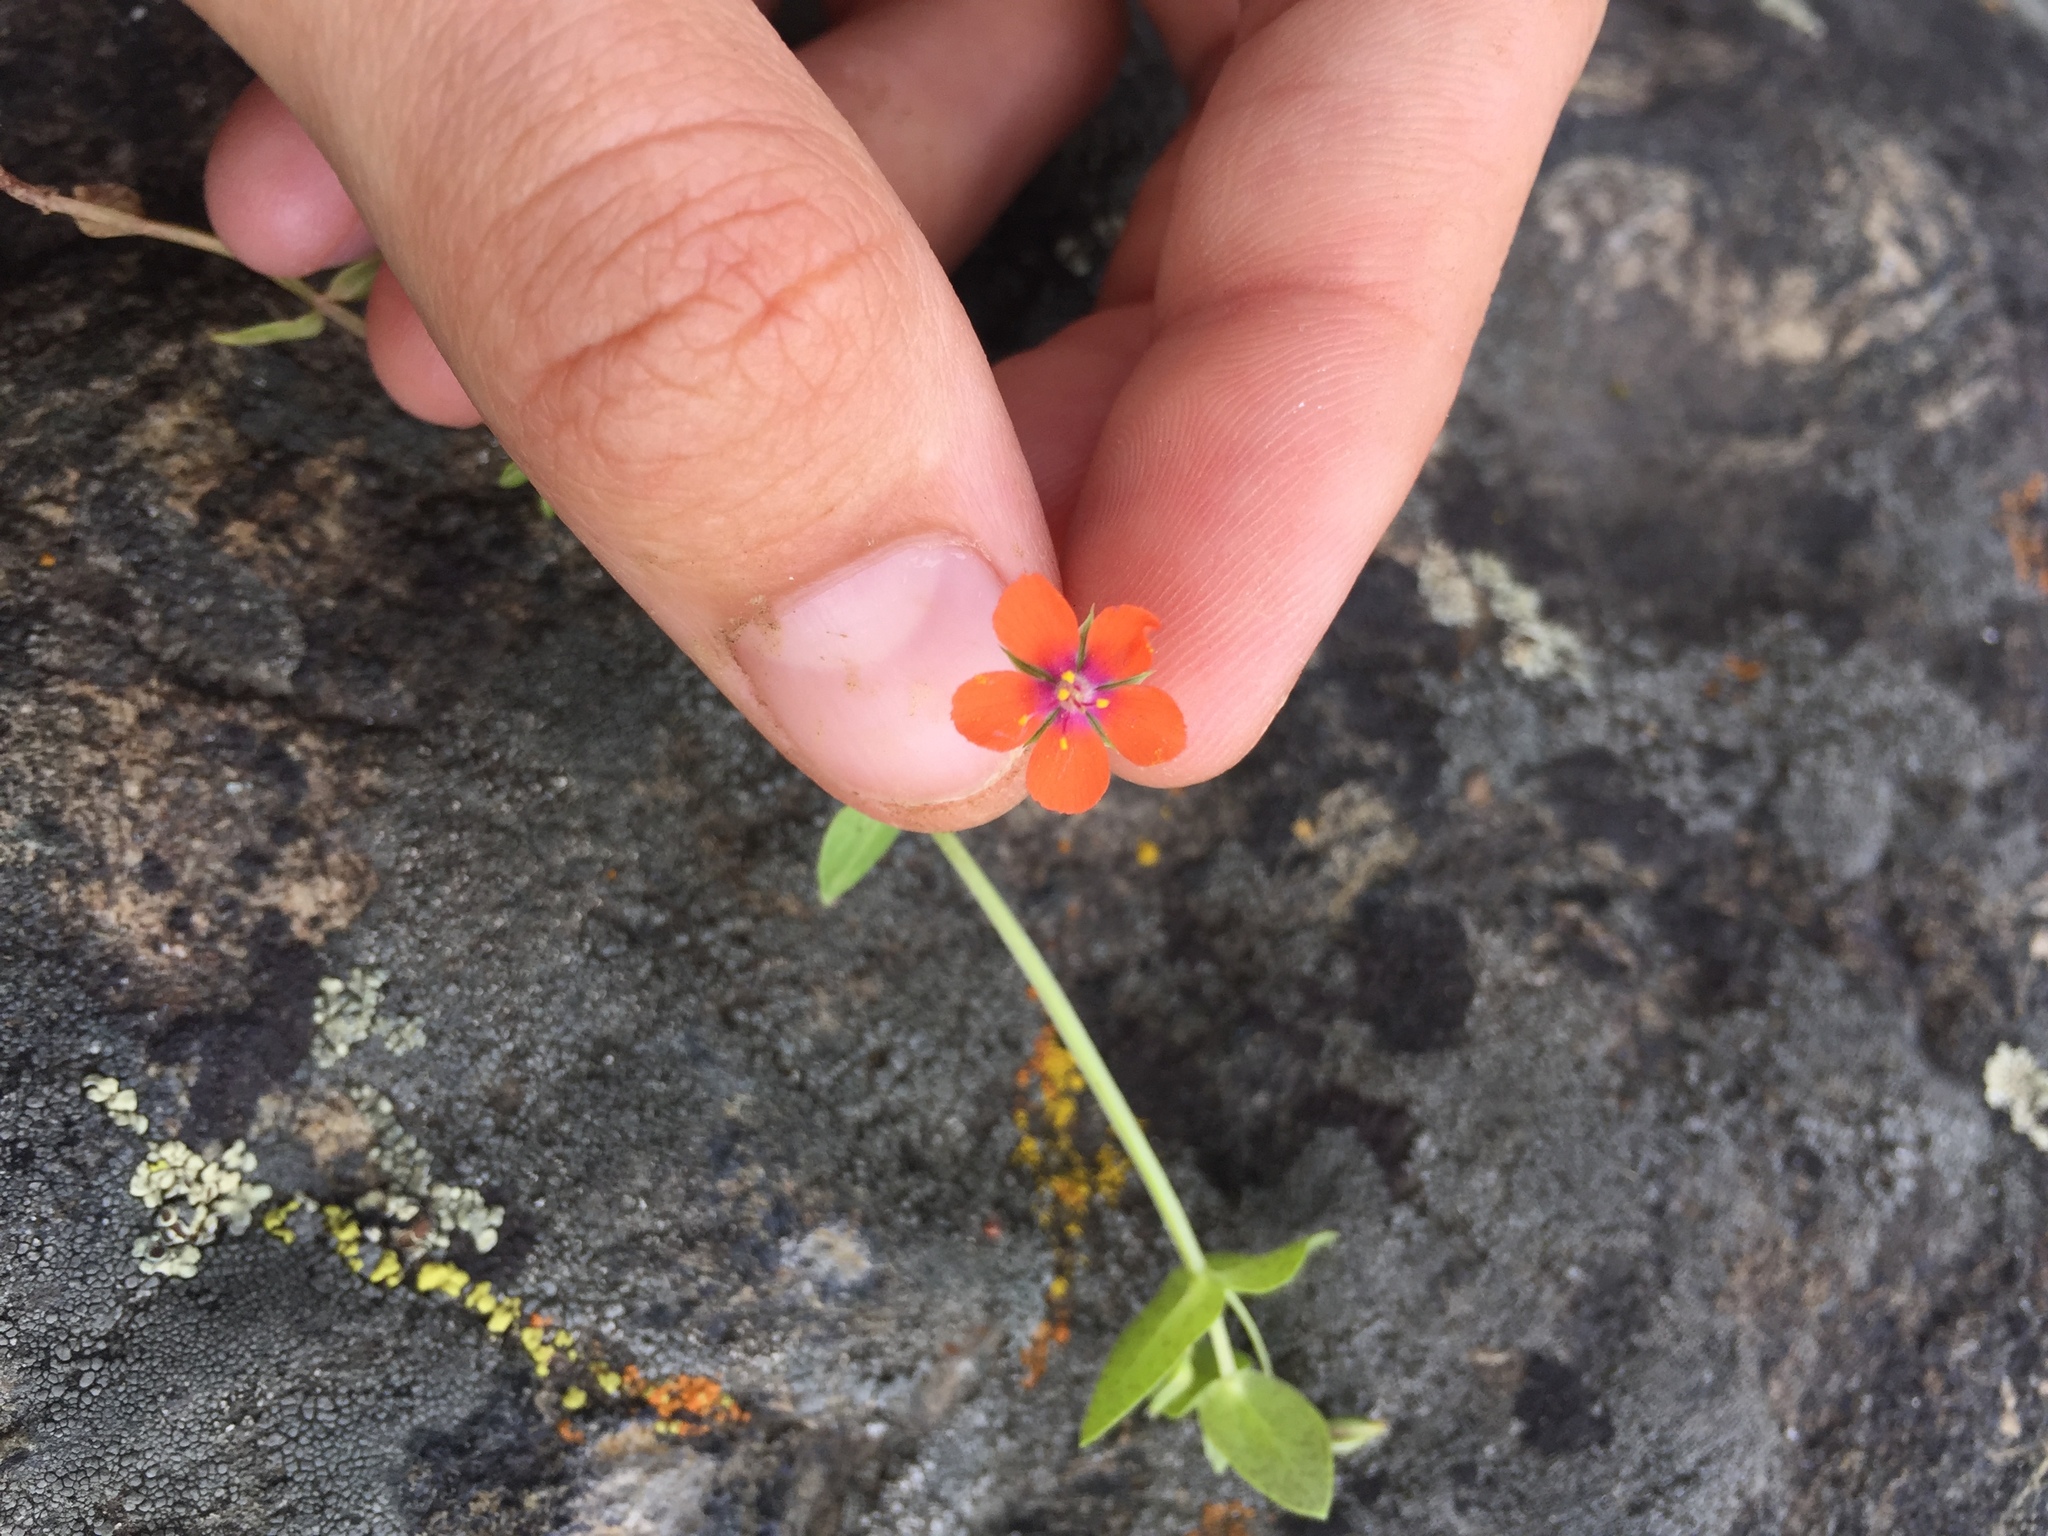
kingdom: Plantae
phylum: Tracheophyta
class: Magnoliopsida
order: Ericales
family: Primulaceae
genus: Lysimachia
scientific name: Lysimachia arvensis
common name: Scarlet pimpernel
